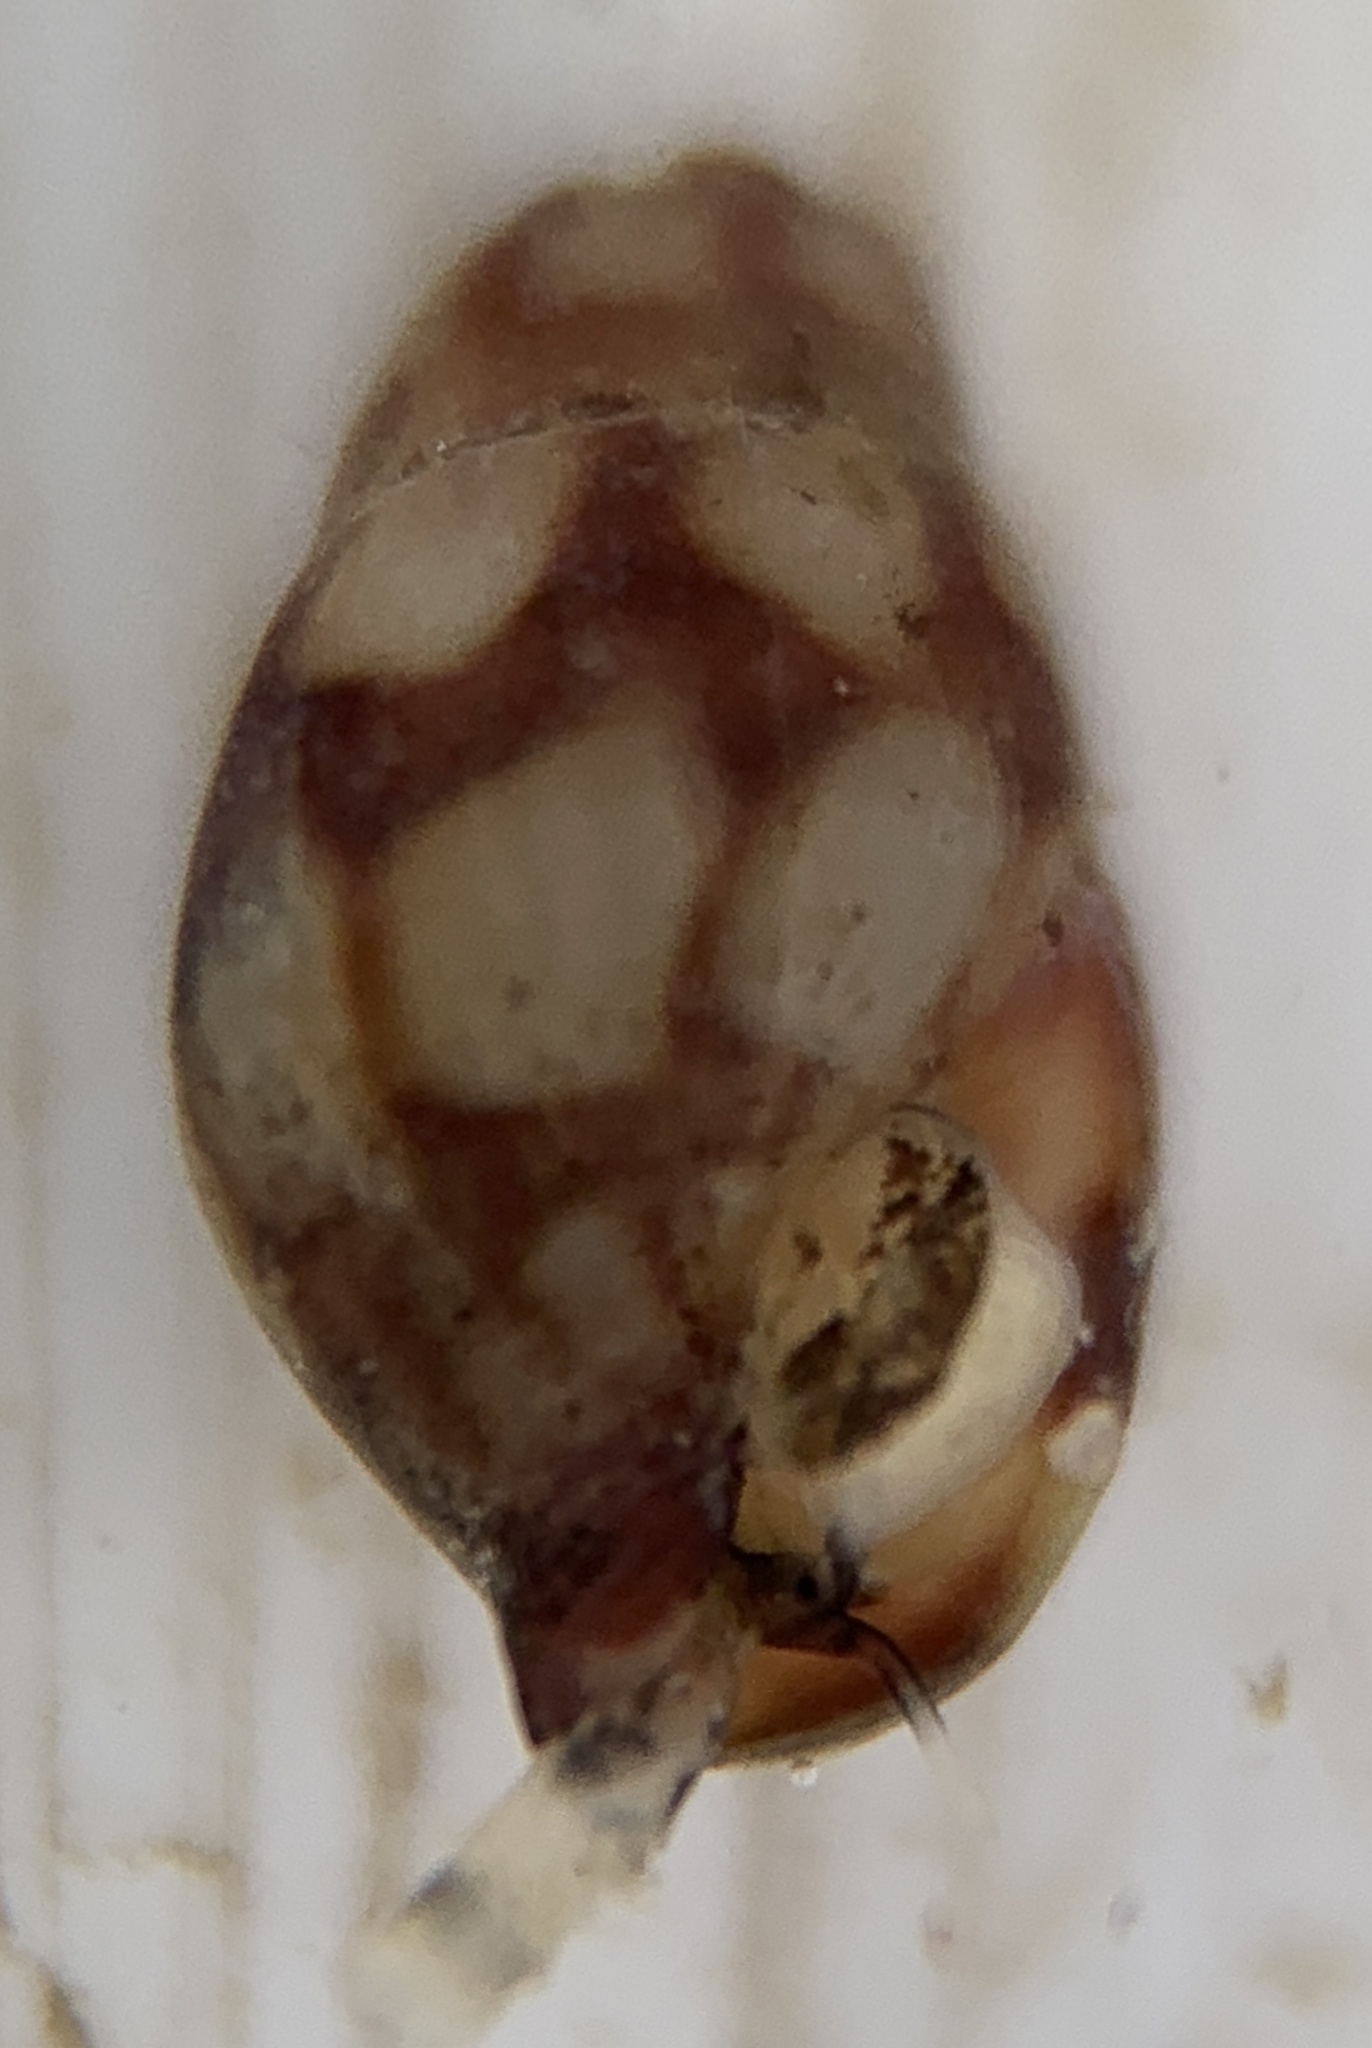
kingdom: Animalia
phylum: Mollusca
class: Gastropoda
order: Neogastropoda
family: Columbellidae
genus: Astyris
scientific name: Astyris lunata
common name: Lunar dovesnail
